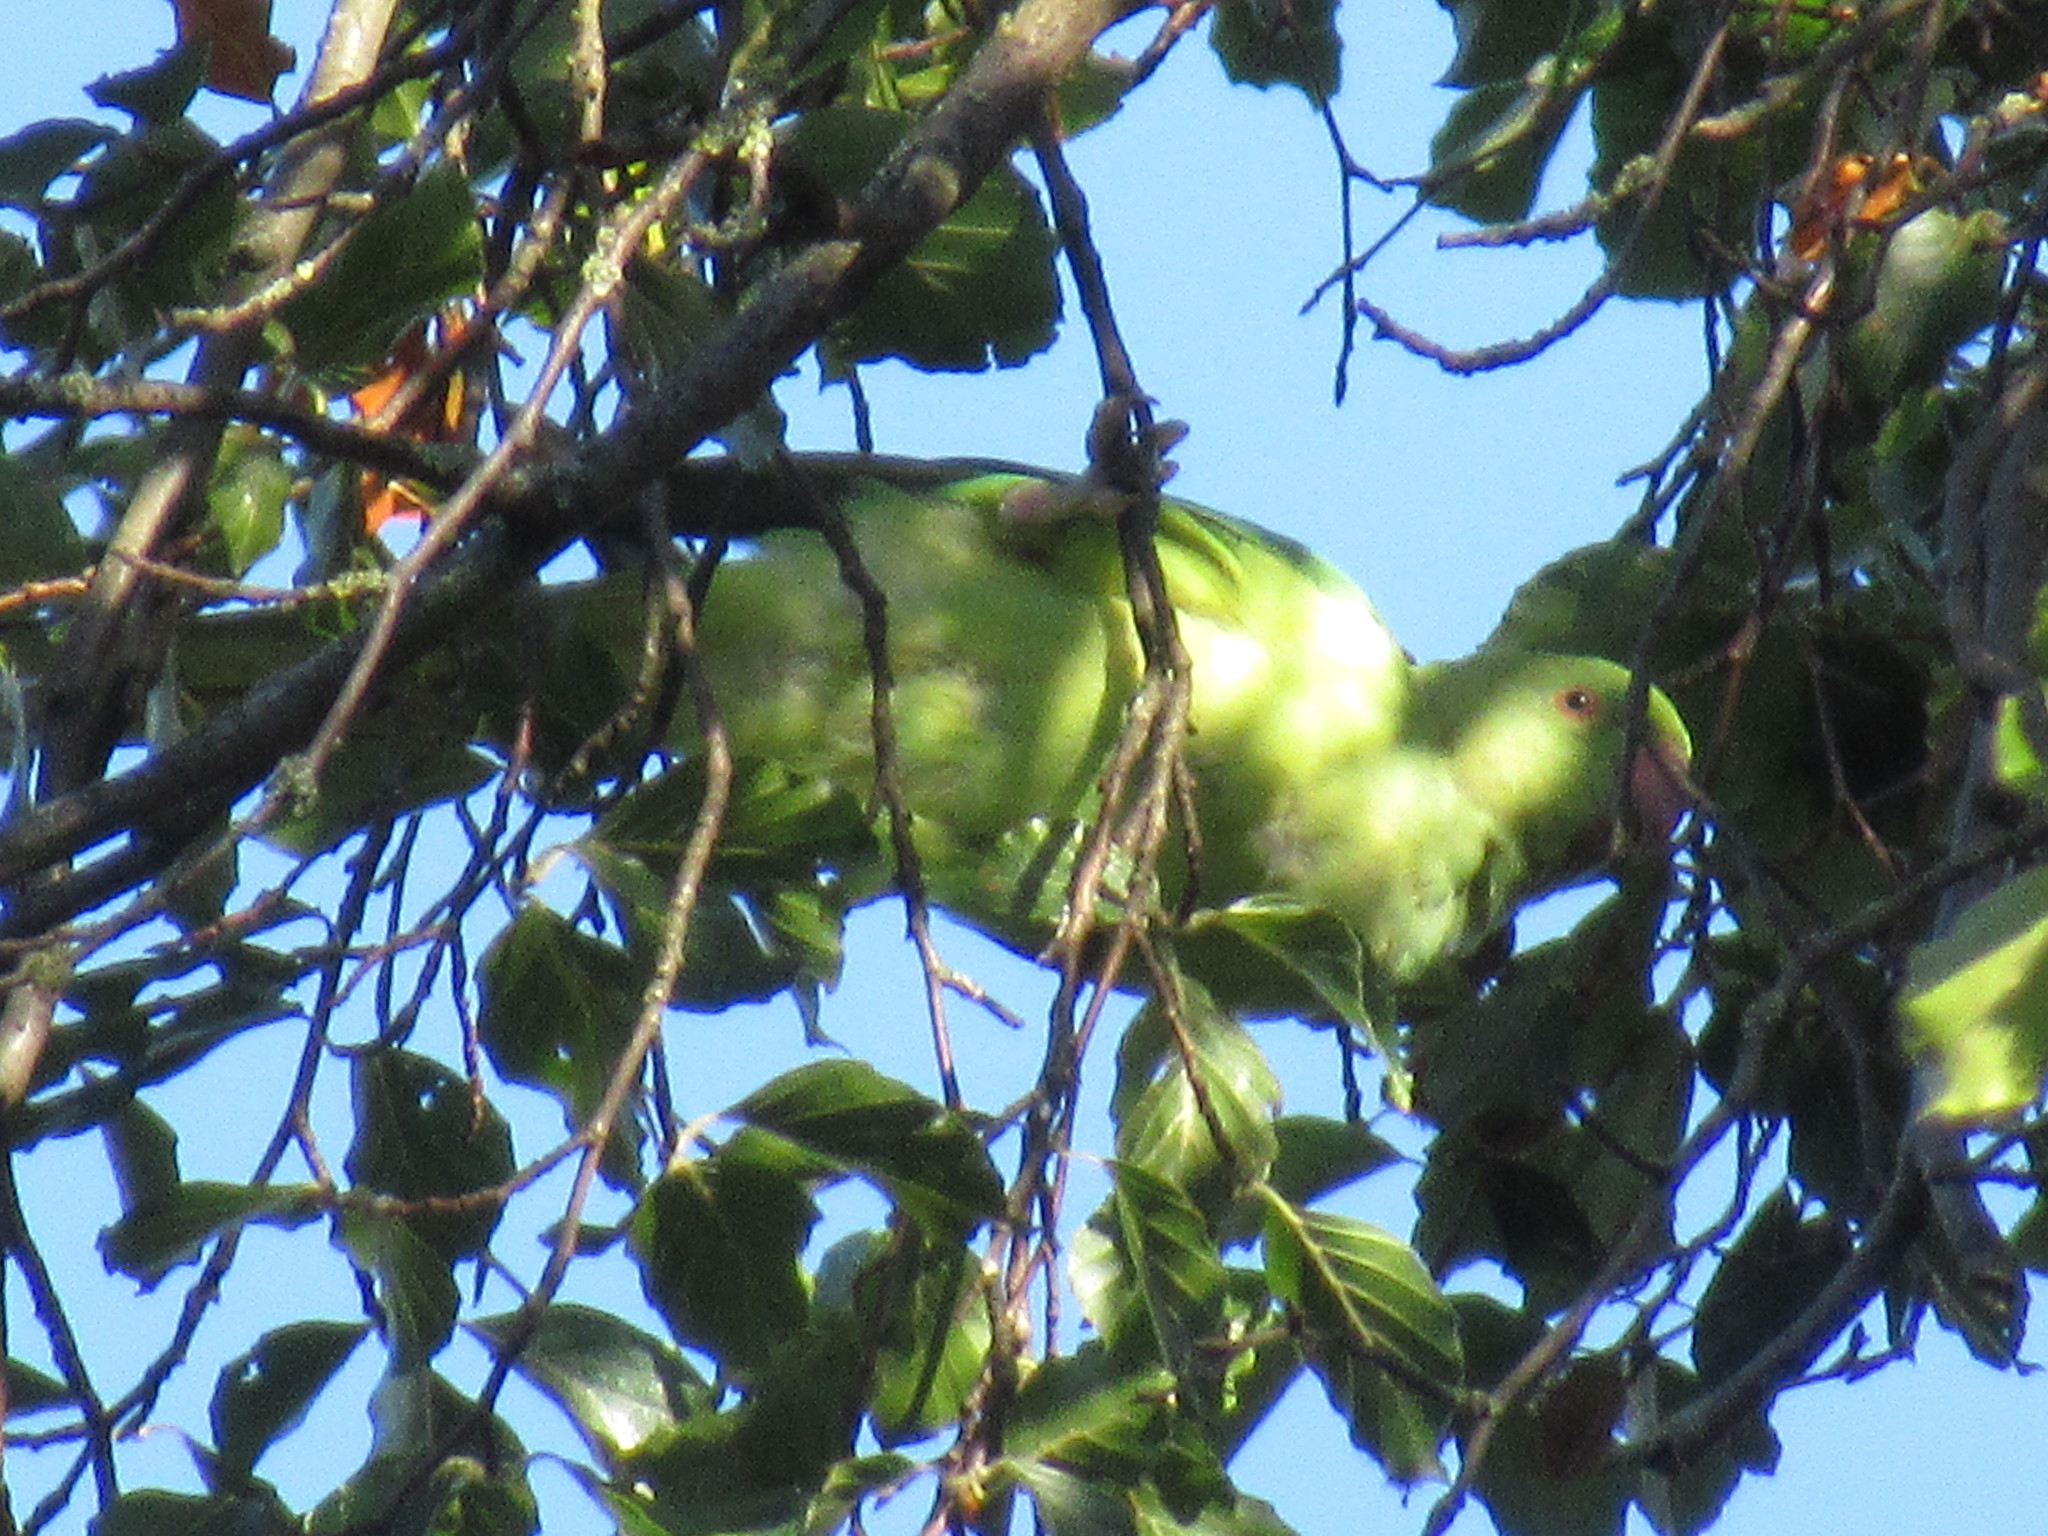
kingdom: Animalia
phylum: Chordata
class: Aves
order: Psittaciformes
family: Psittacidae
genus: Psittacula
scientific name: Psittacula krameri
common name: Rose-ringed parakeet
